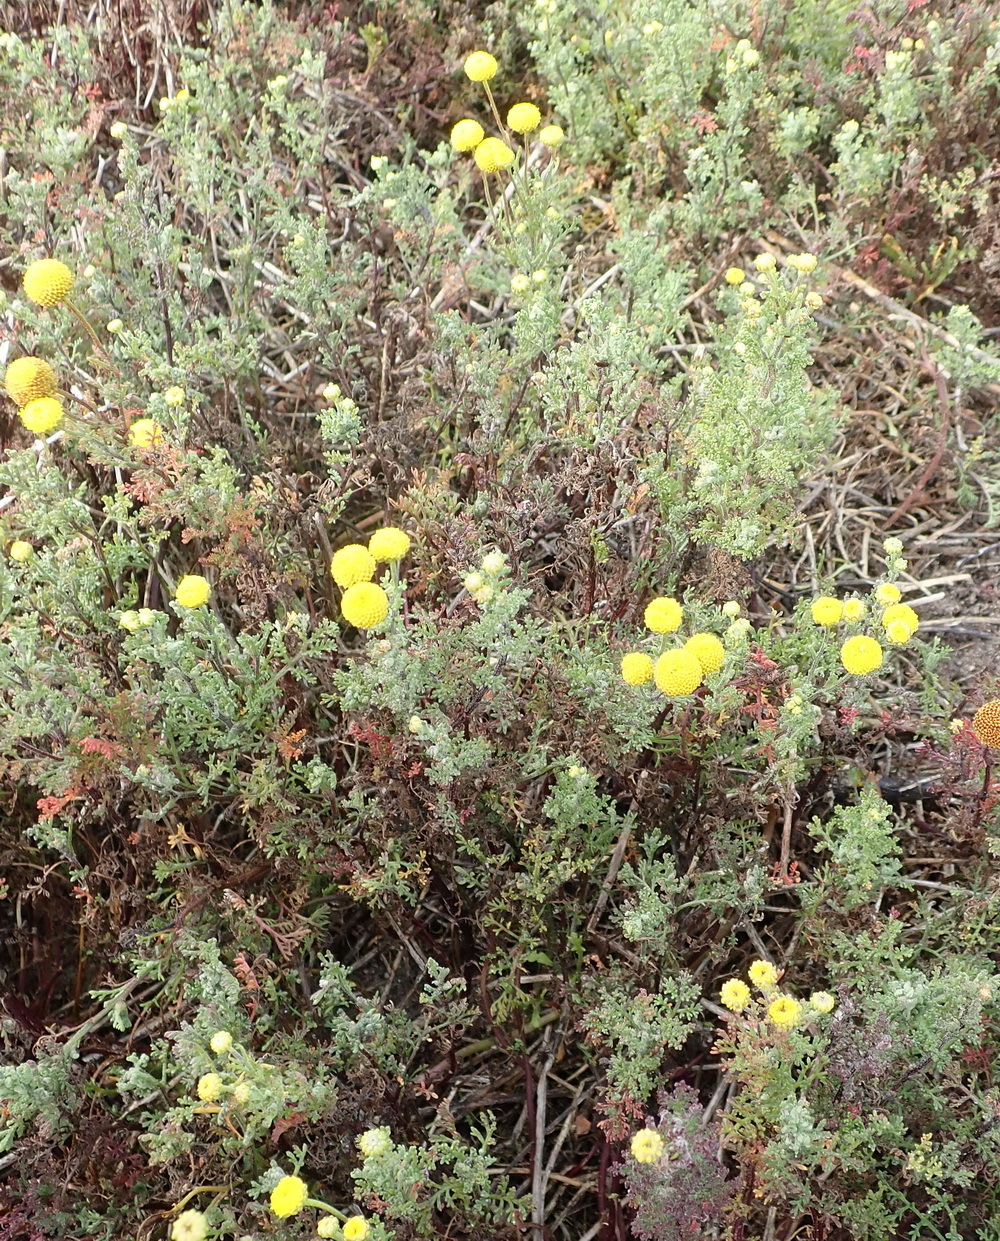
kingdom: Plantae
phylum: Tracheophyta
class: Magnoliopsida
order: Asterales
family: Asteraceae
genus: Oncosiphon
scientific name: Oncosiphon pilulifer
